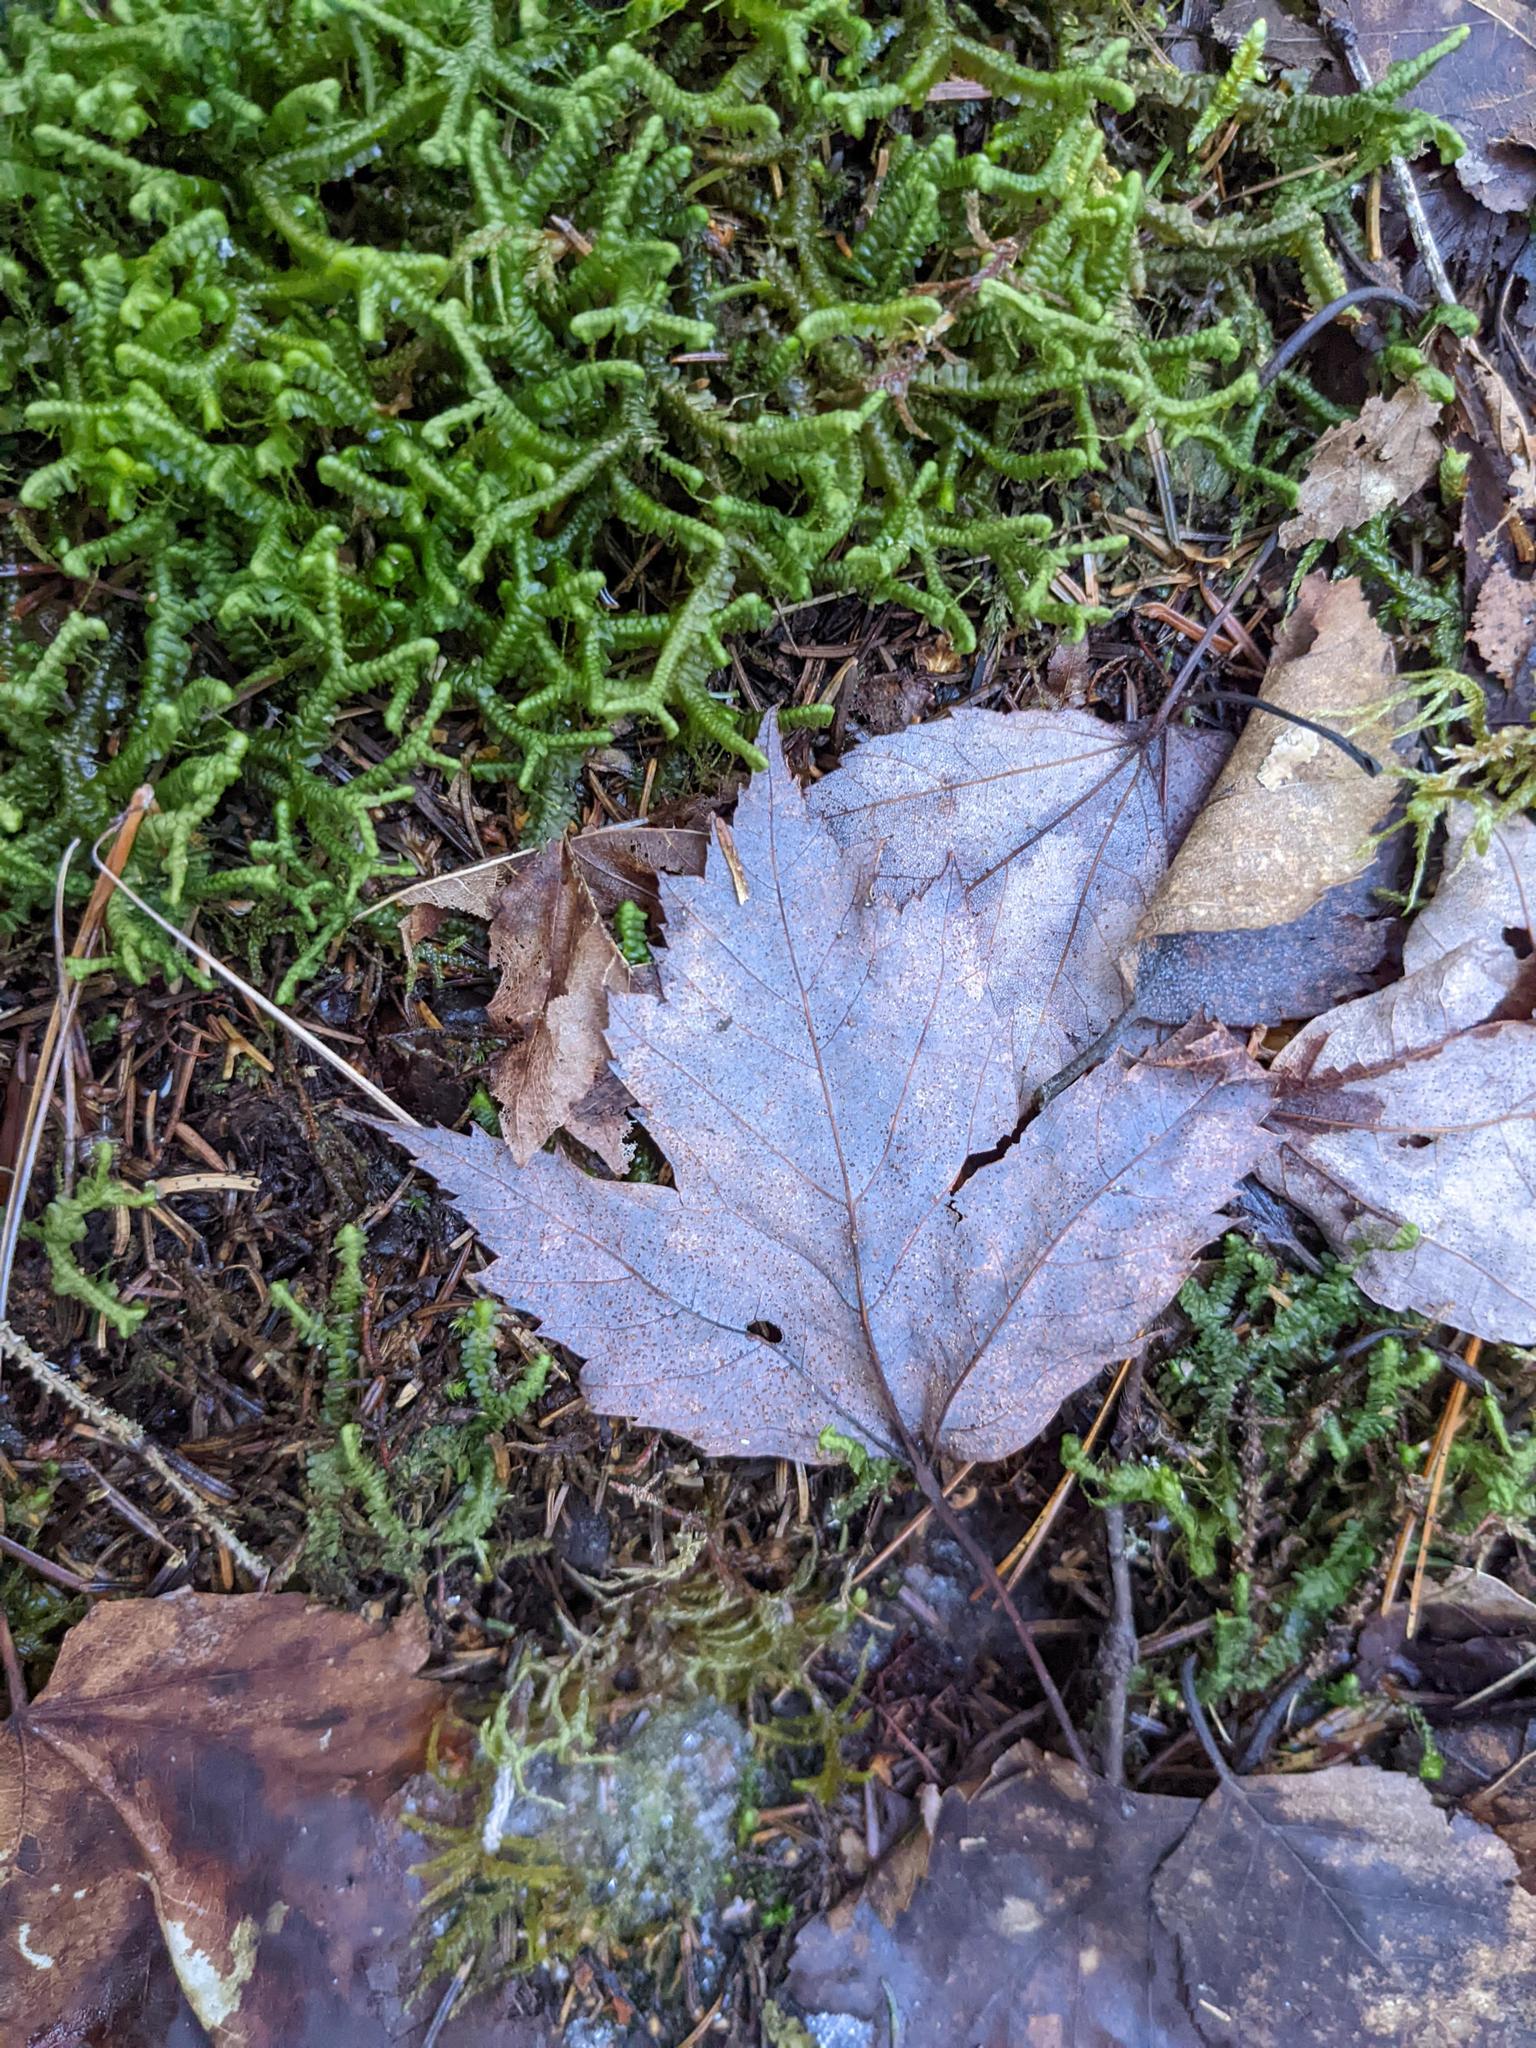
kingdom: Plantae
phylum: Tracheophyta
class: Magnoliopsida
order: Sapindales
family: Sapindaceae
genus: Acer
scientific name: Acer rubrum
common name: Red maple
